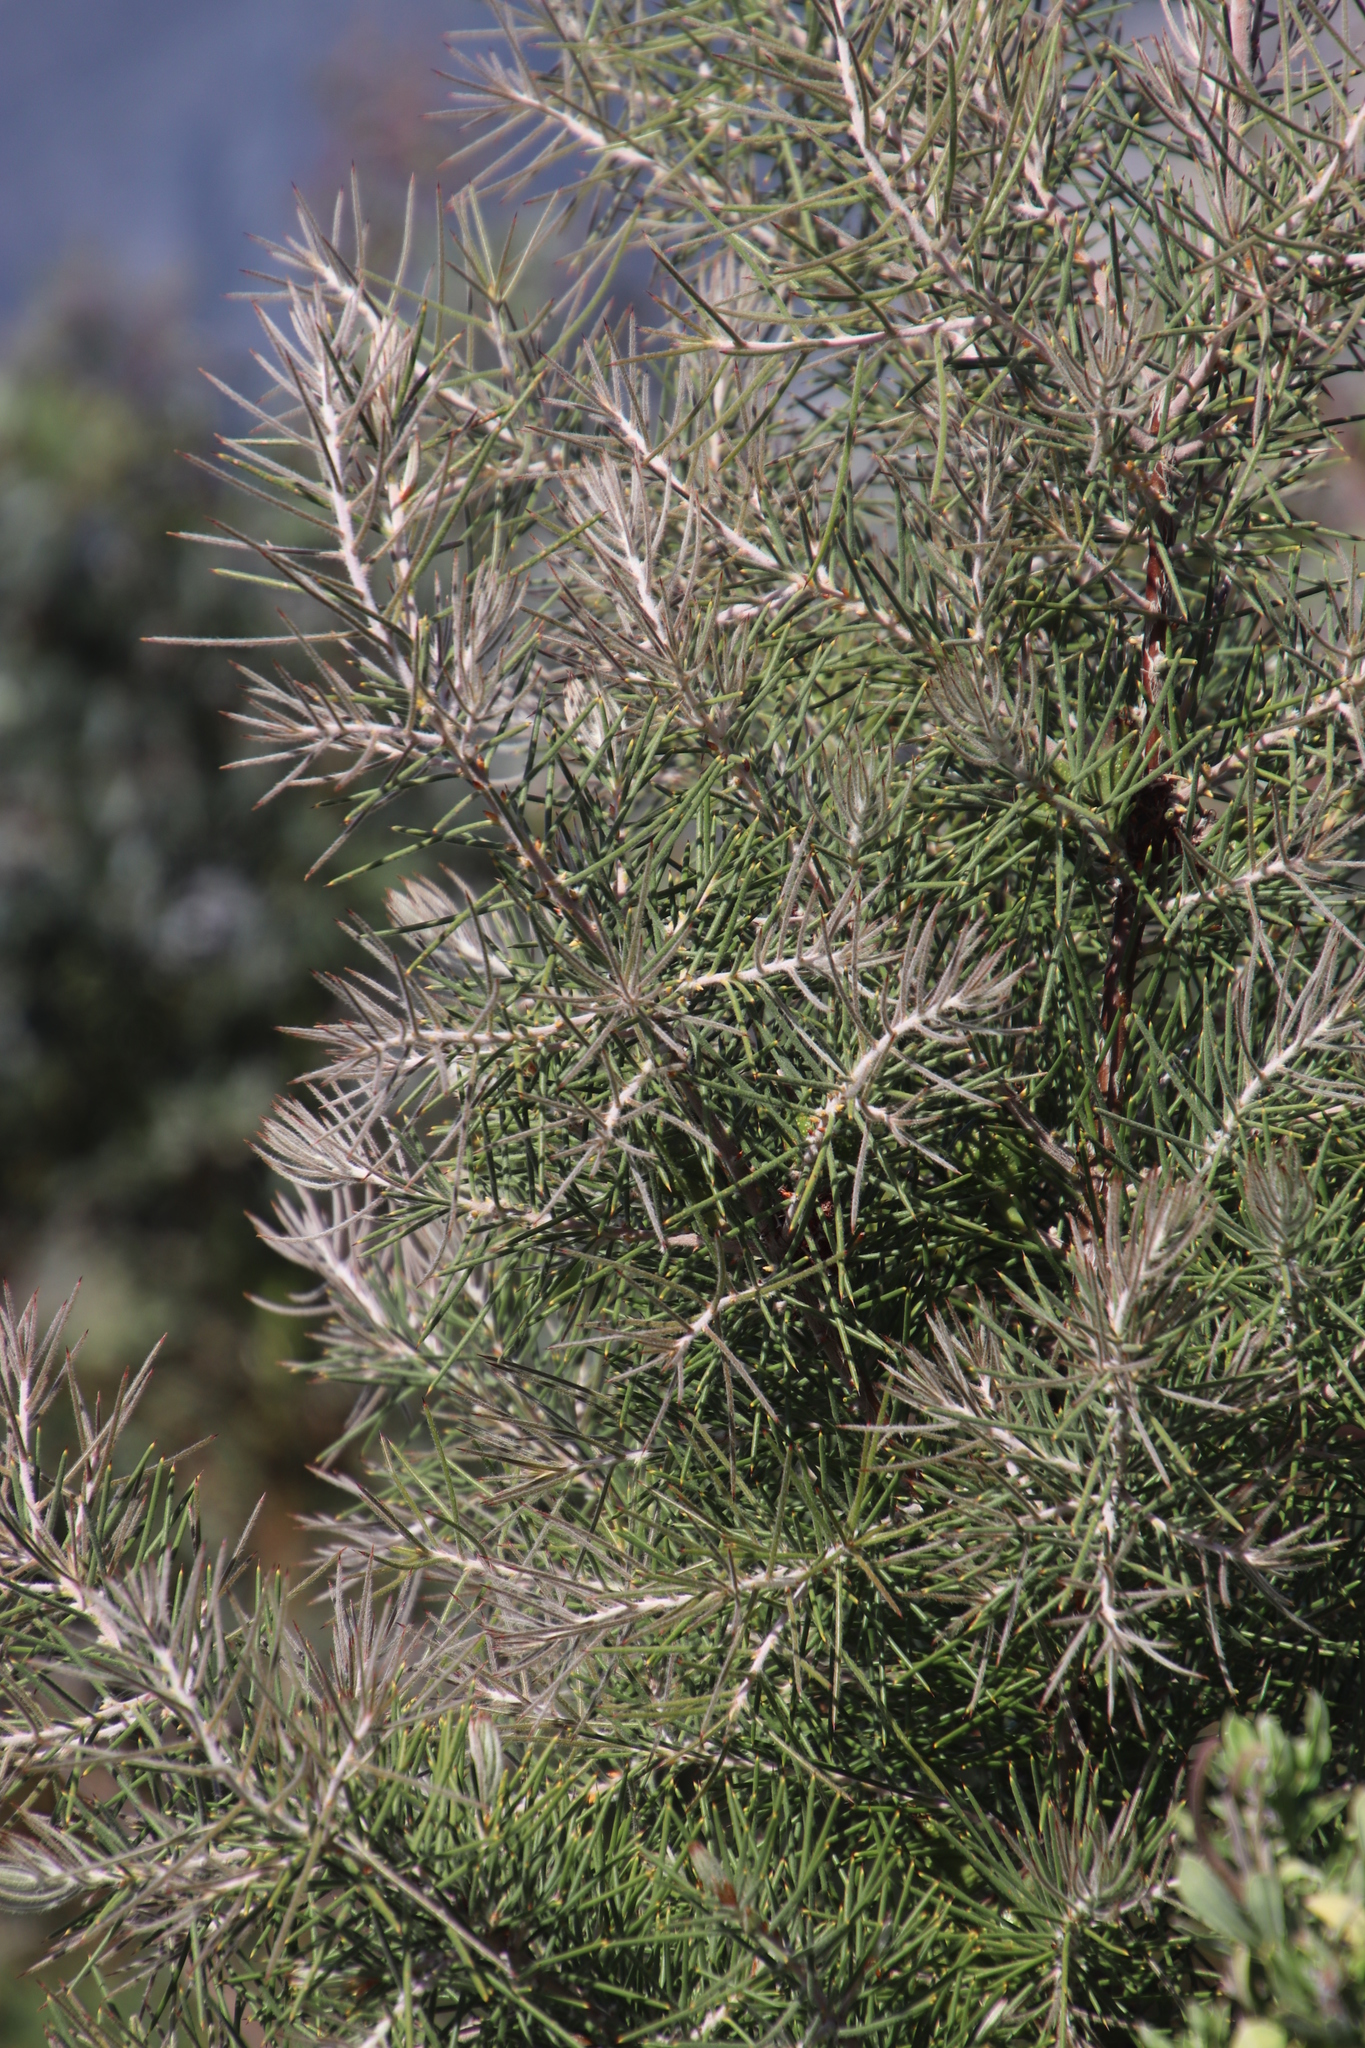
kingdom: Plantae
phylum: Tracheophyta
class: Magnoliopsida
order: Proteales
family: Proteaceae
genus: Hakea
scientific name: Hakea gibbosa
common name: Rock hakea
